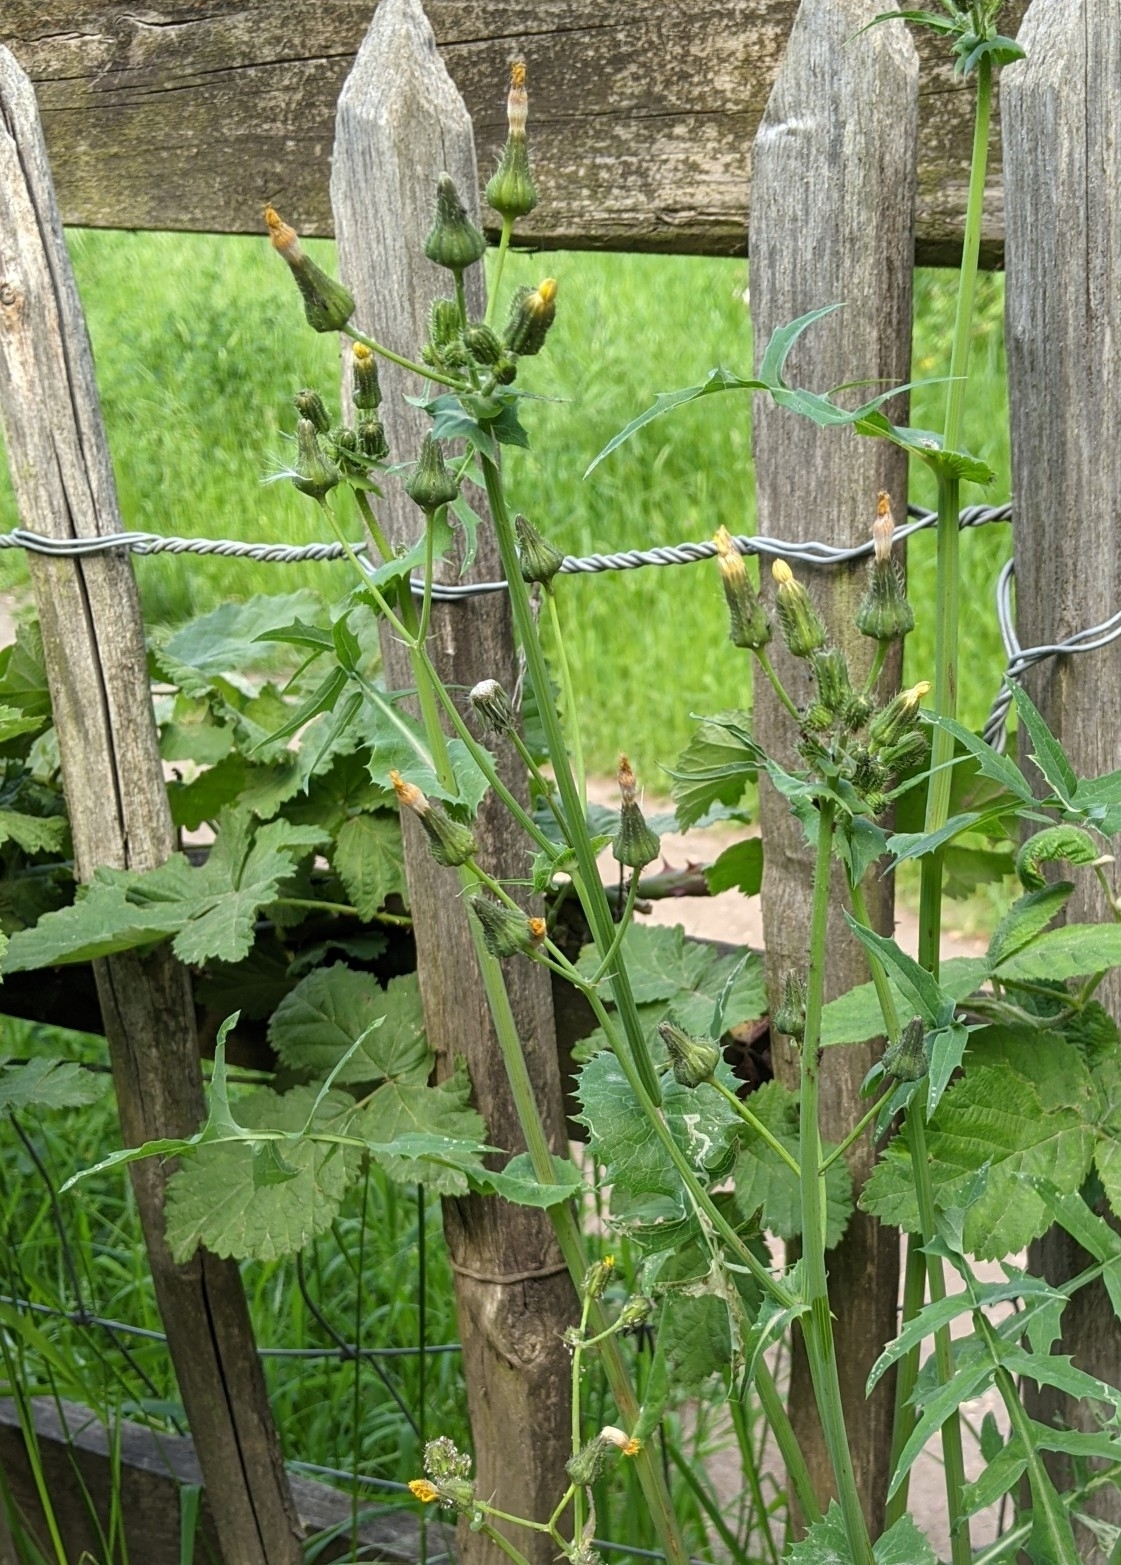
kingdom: Plantae
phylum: Tracheophyta
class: Magnoliopsida
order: Asterales
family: Asteraceae
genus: Sonchus
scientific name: Sonchus oleraceus
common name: Common sowthistle
